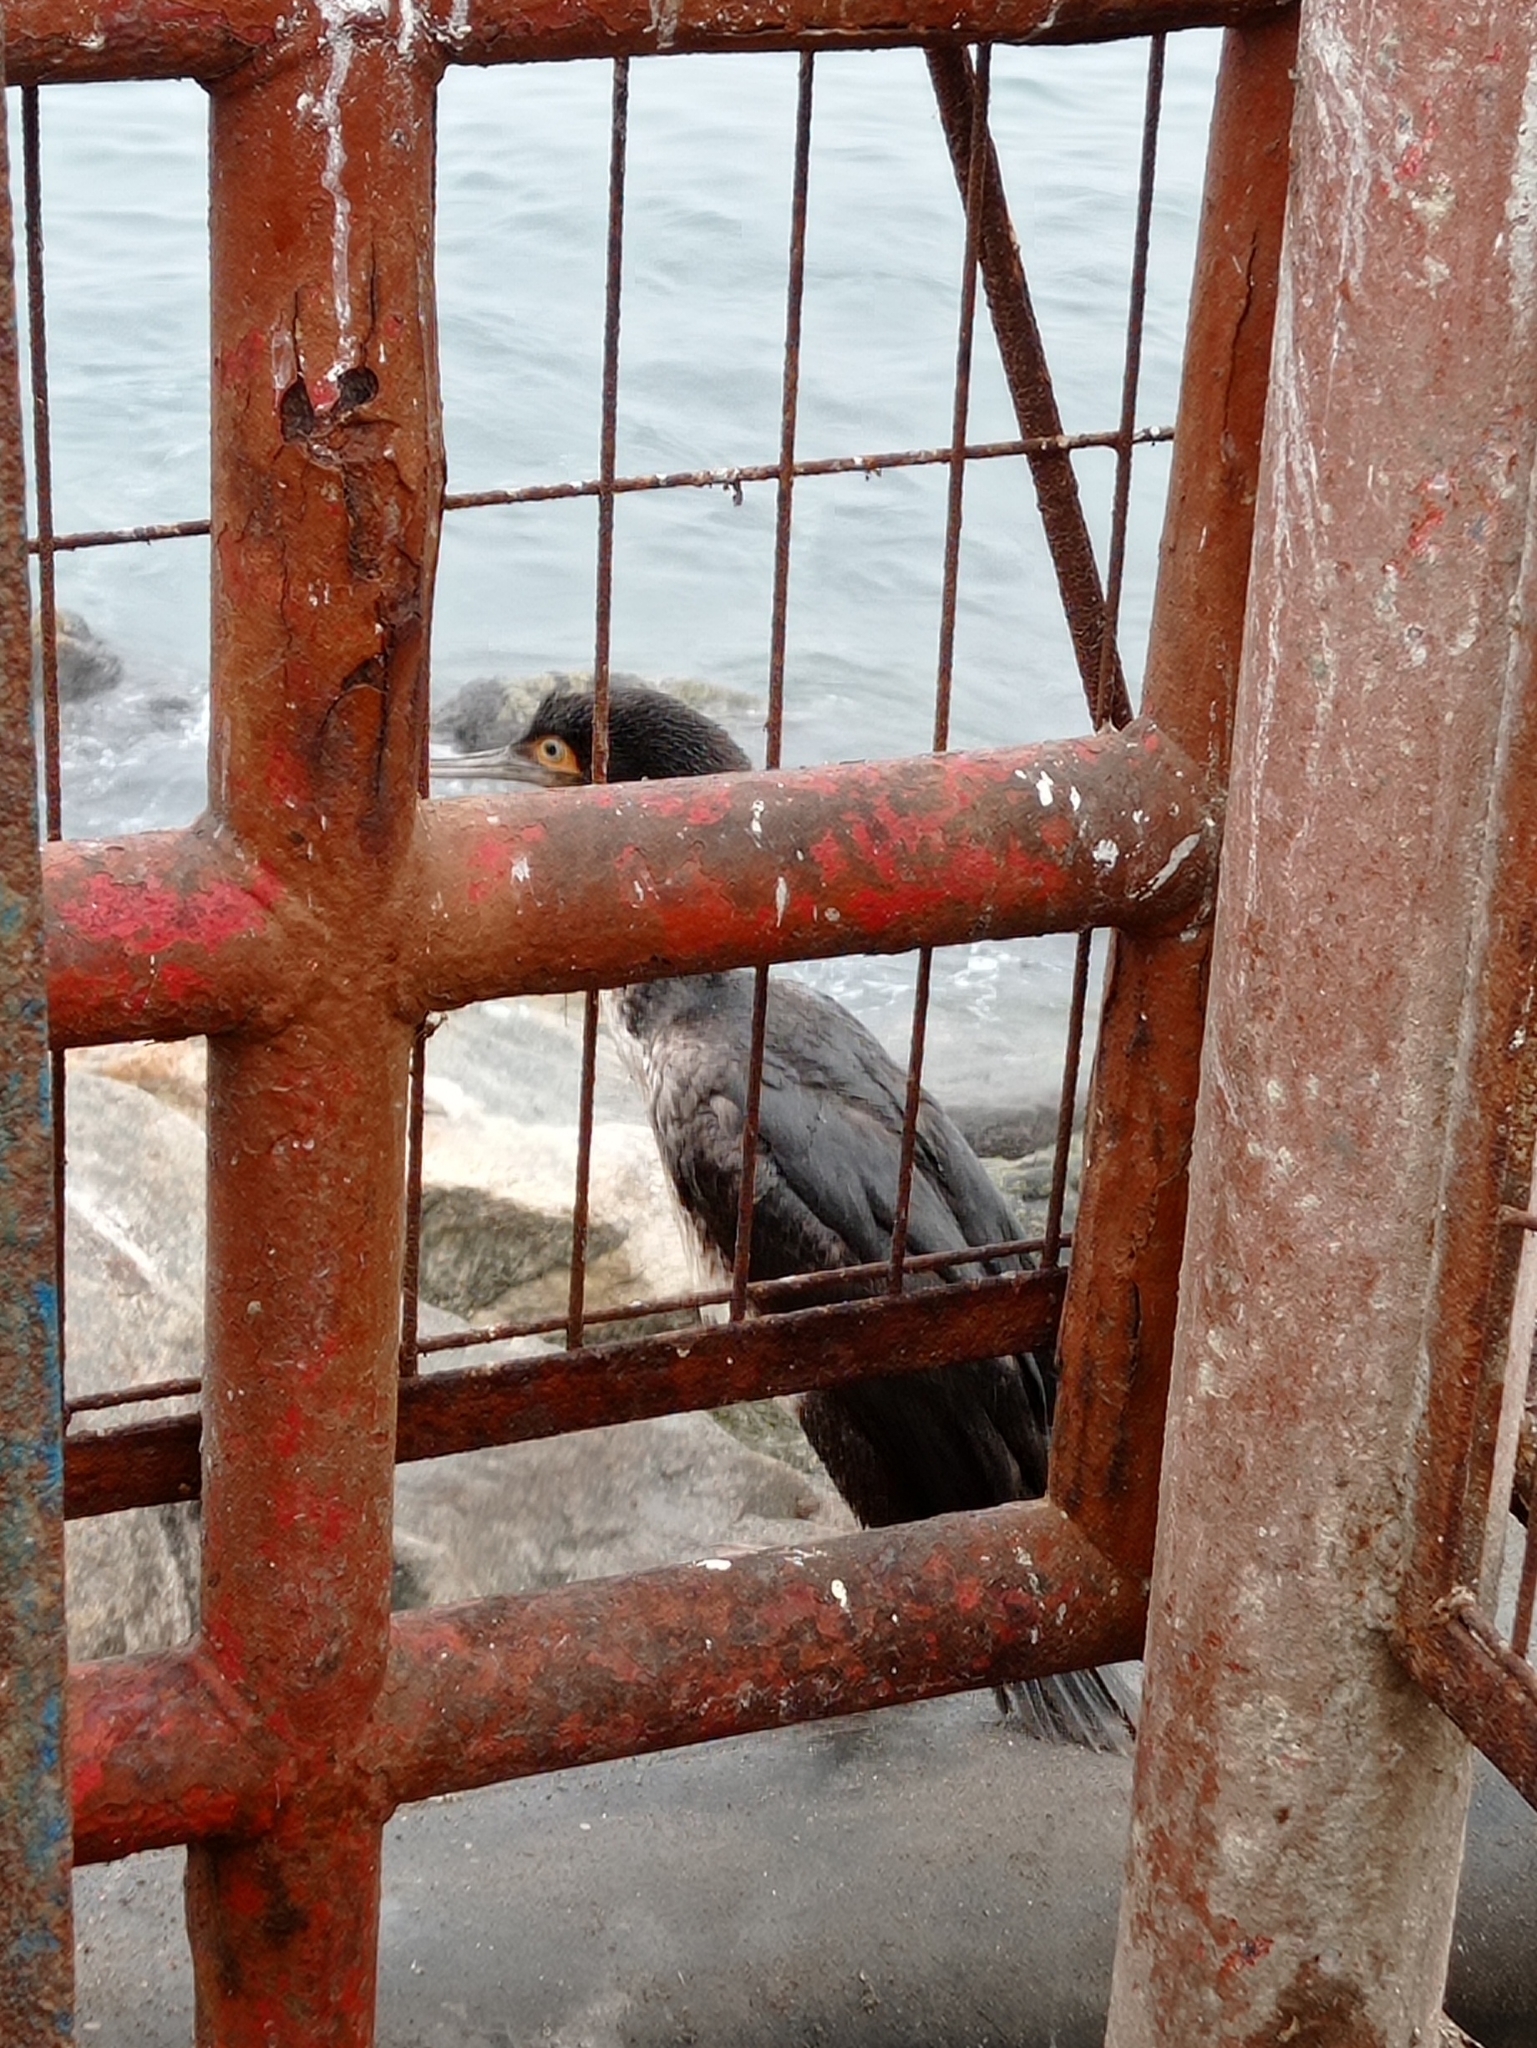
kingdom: Animalia
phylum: Chordata
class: Aves
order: Suliformes
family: Phalacrocoracidae
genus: Leucocarbo
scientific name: Leucocarbo bougainvillii
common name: Guanay cormorant
